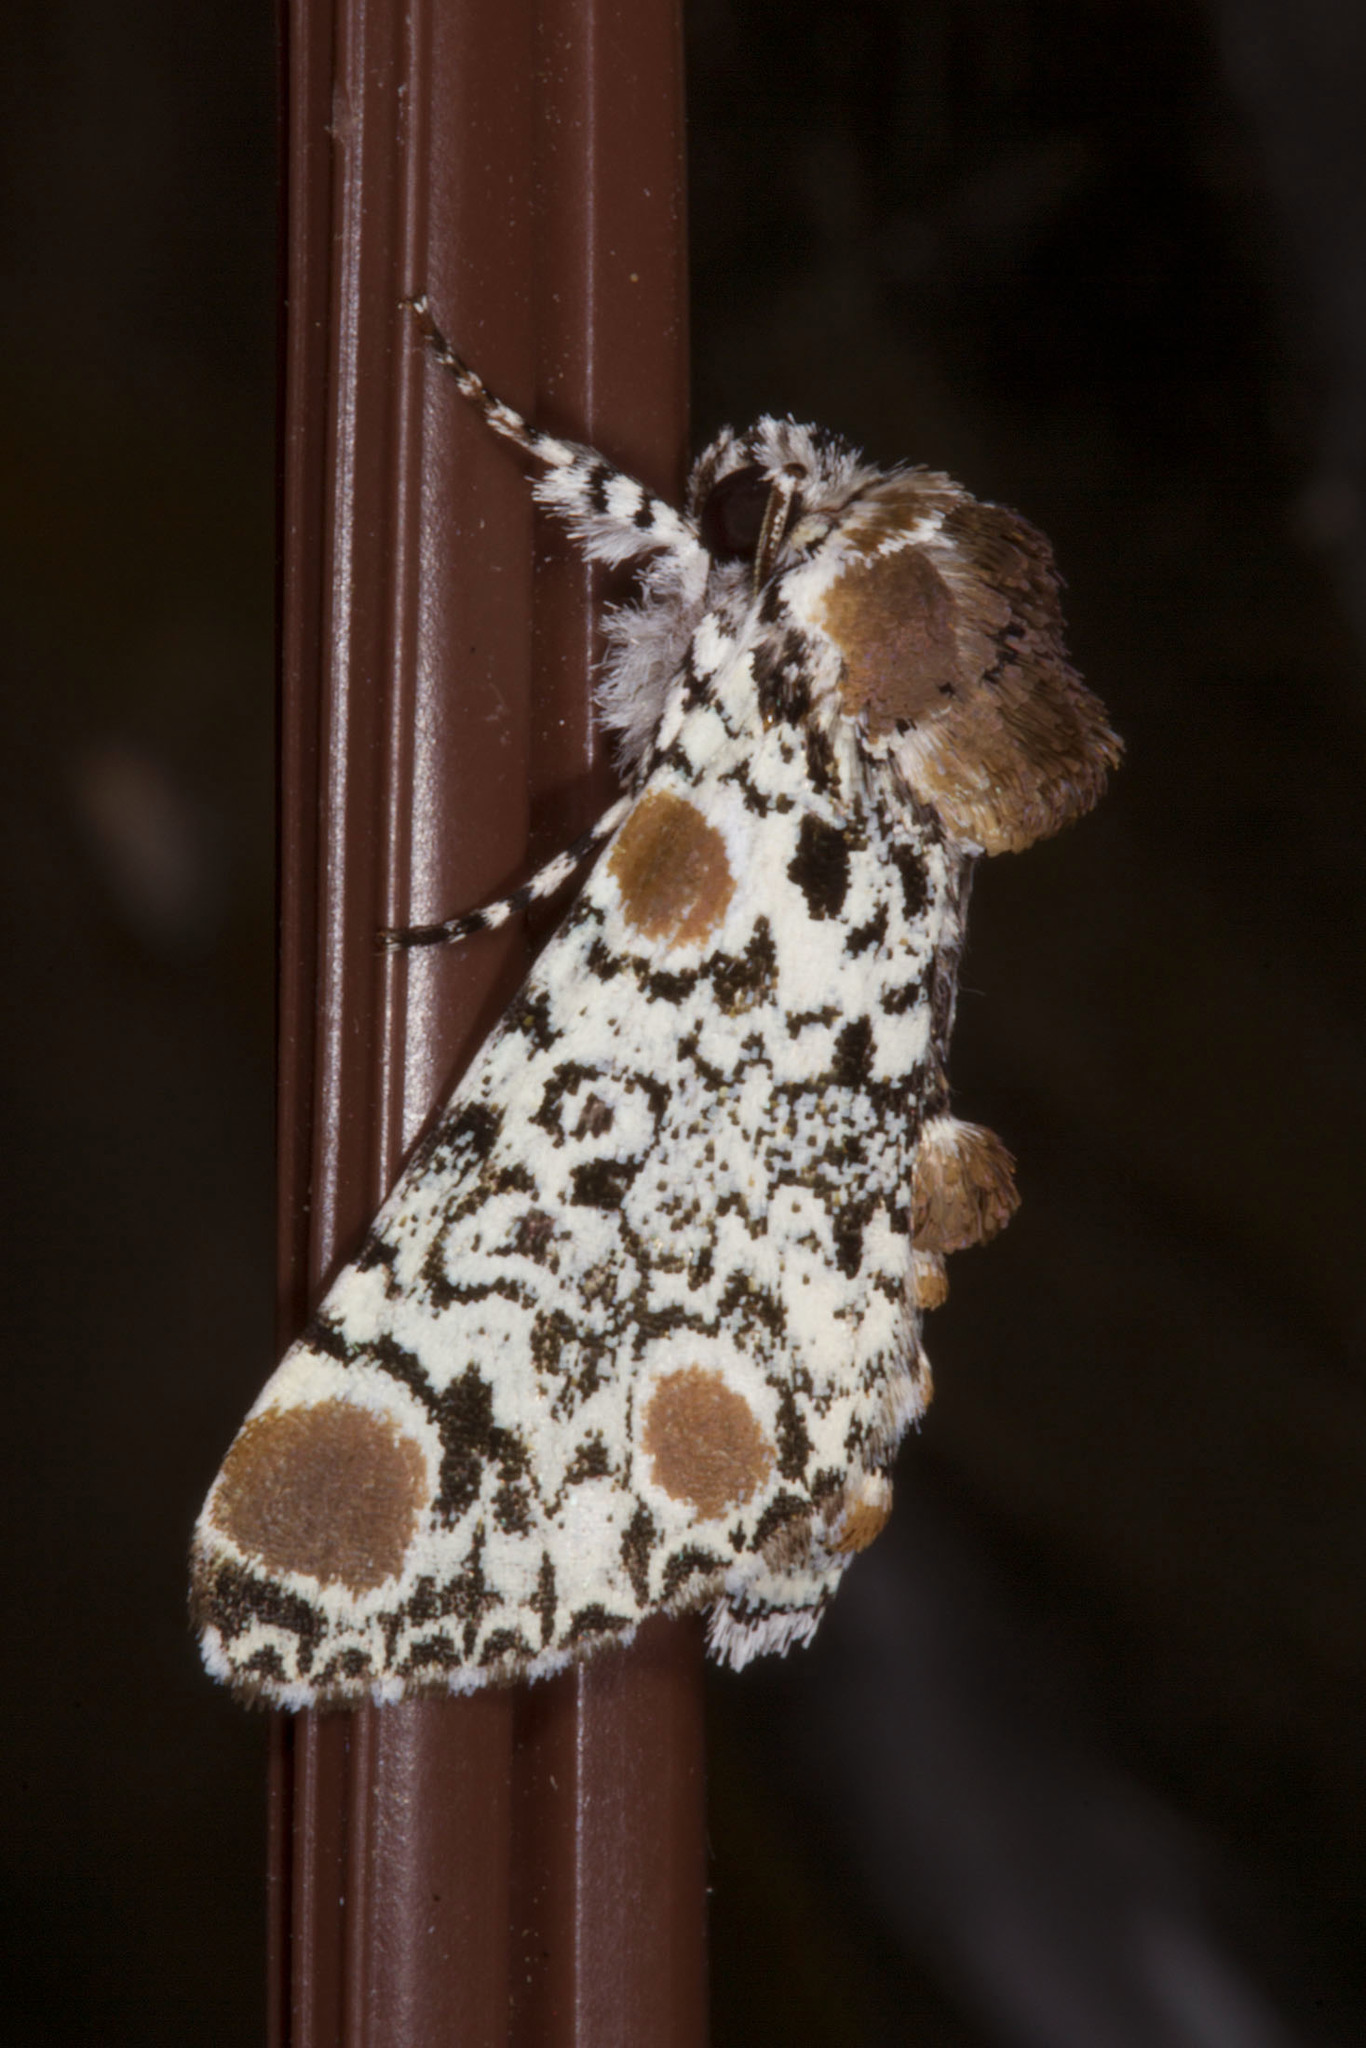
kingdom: Animalia
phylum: Arthropoda
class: Insecta
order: Lepidoptera
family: Noctuidae
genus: Harrisimemna
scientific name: Harrisimemna trisignata
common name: Harris threespot
